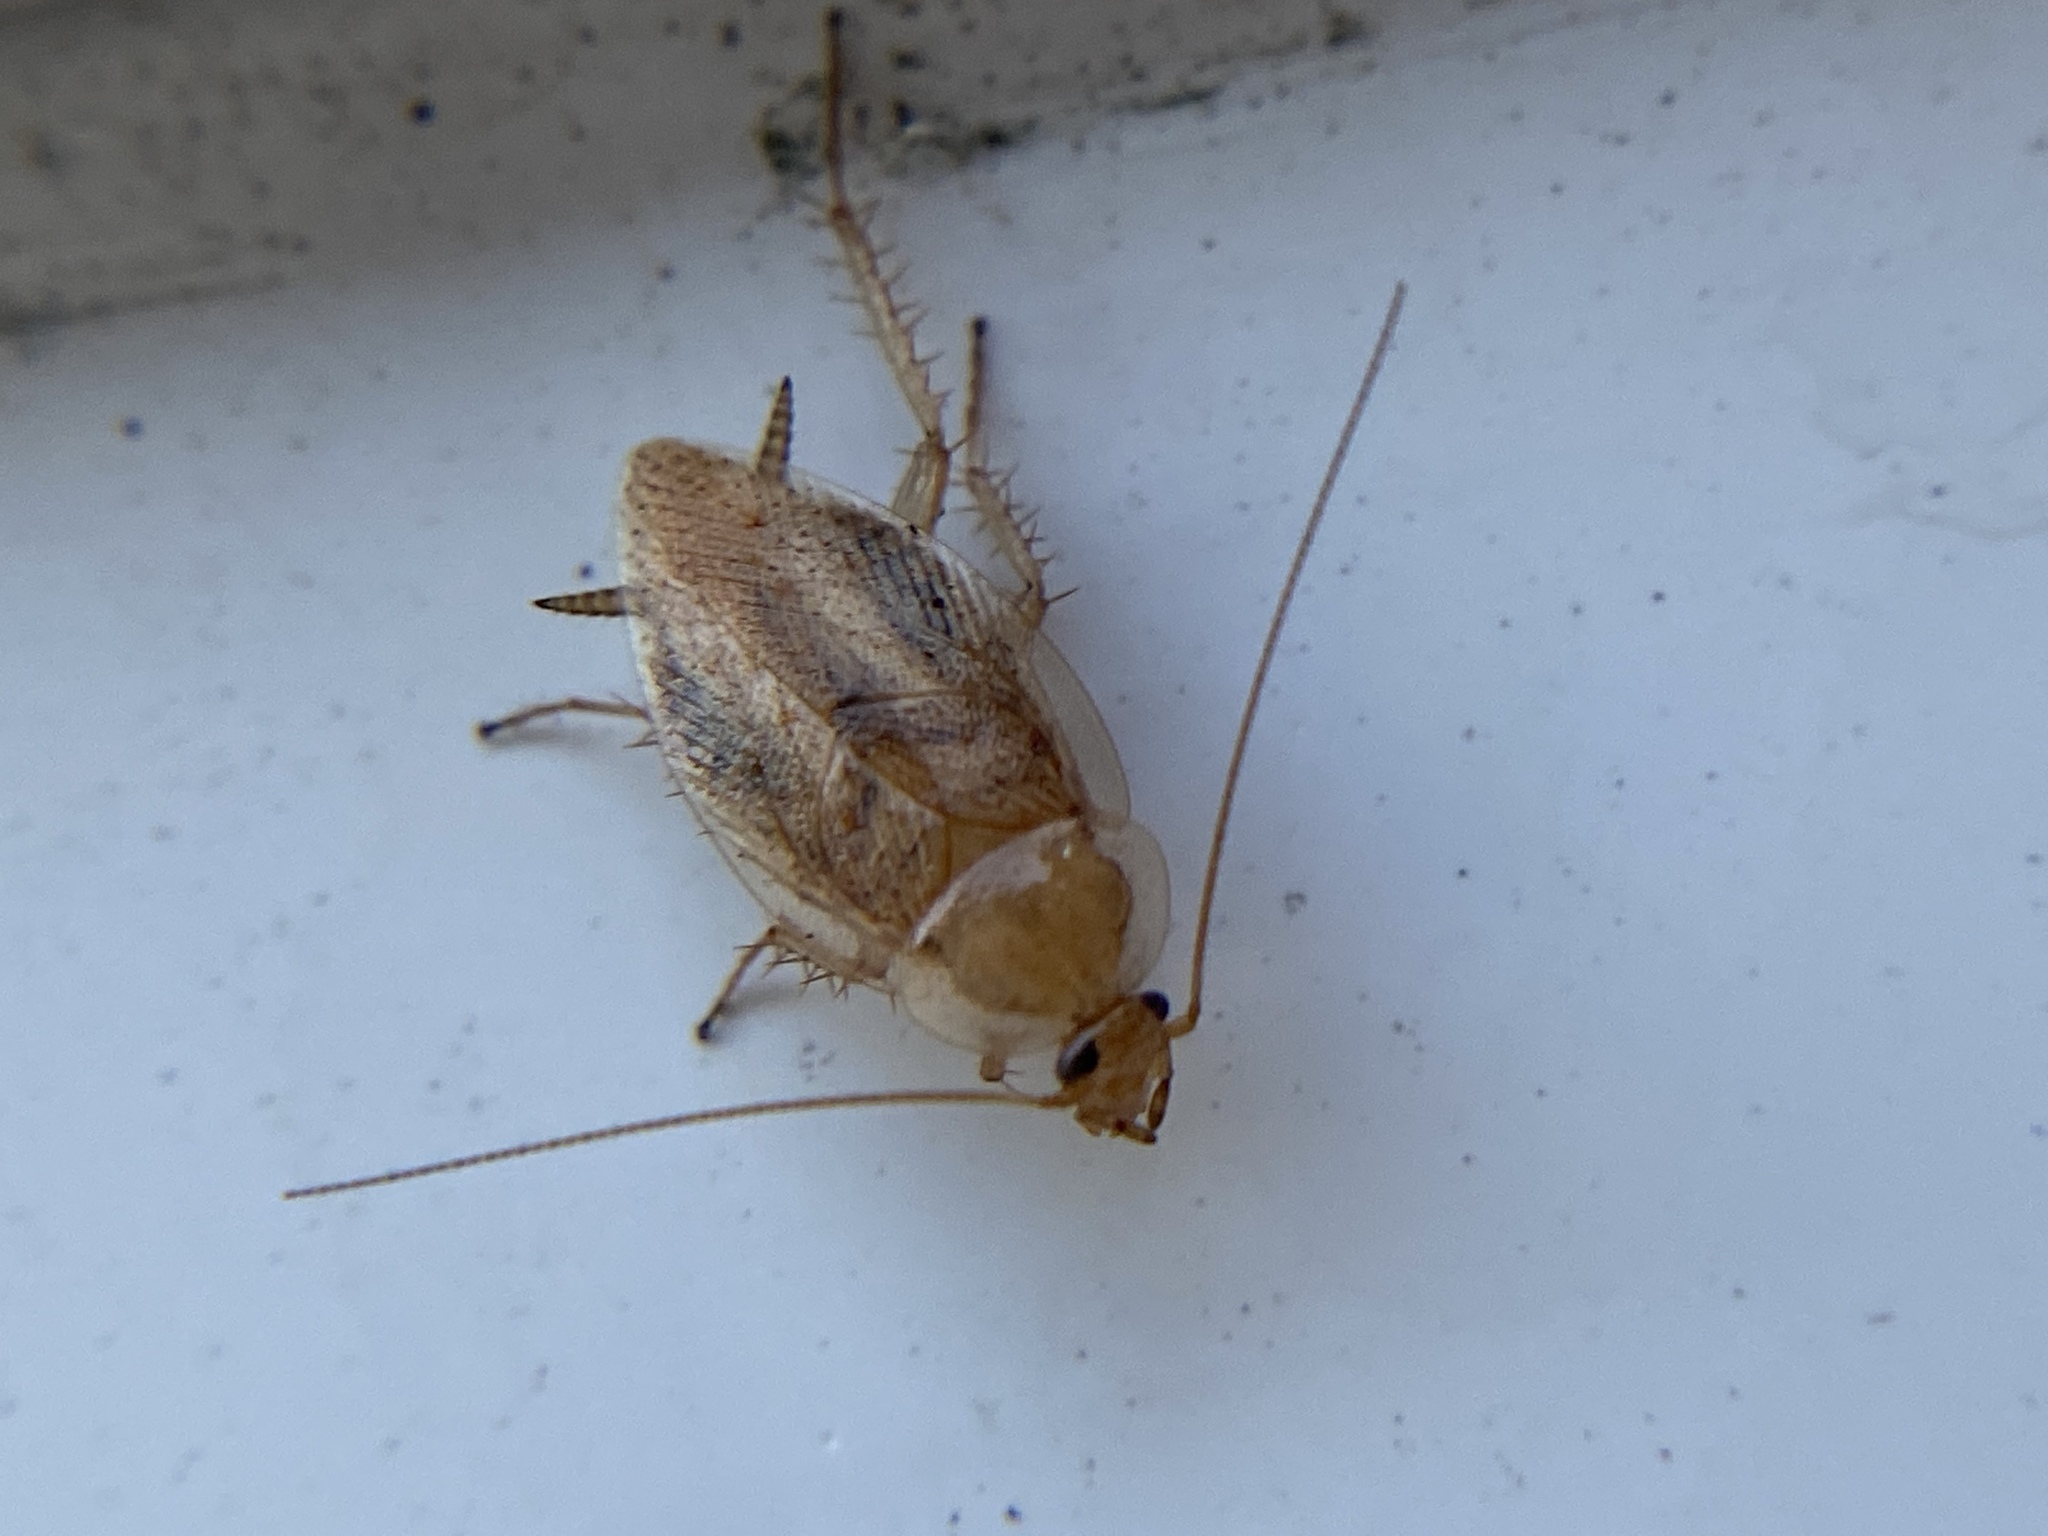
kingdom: Animalia
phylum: Arthropoda
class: Insecta
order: Blattodea
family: Ectobiidae
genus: Ectobius
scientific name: Ectobius pallidus
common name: Tawny cockroach
